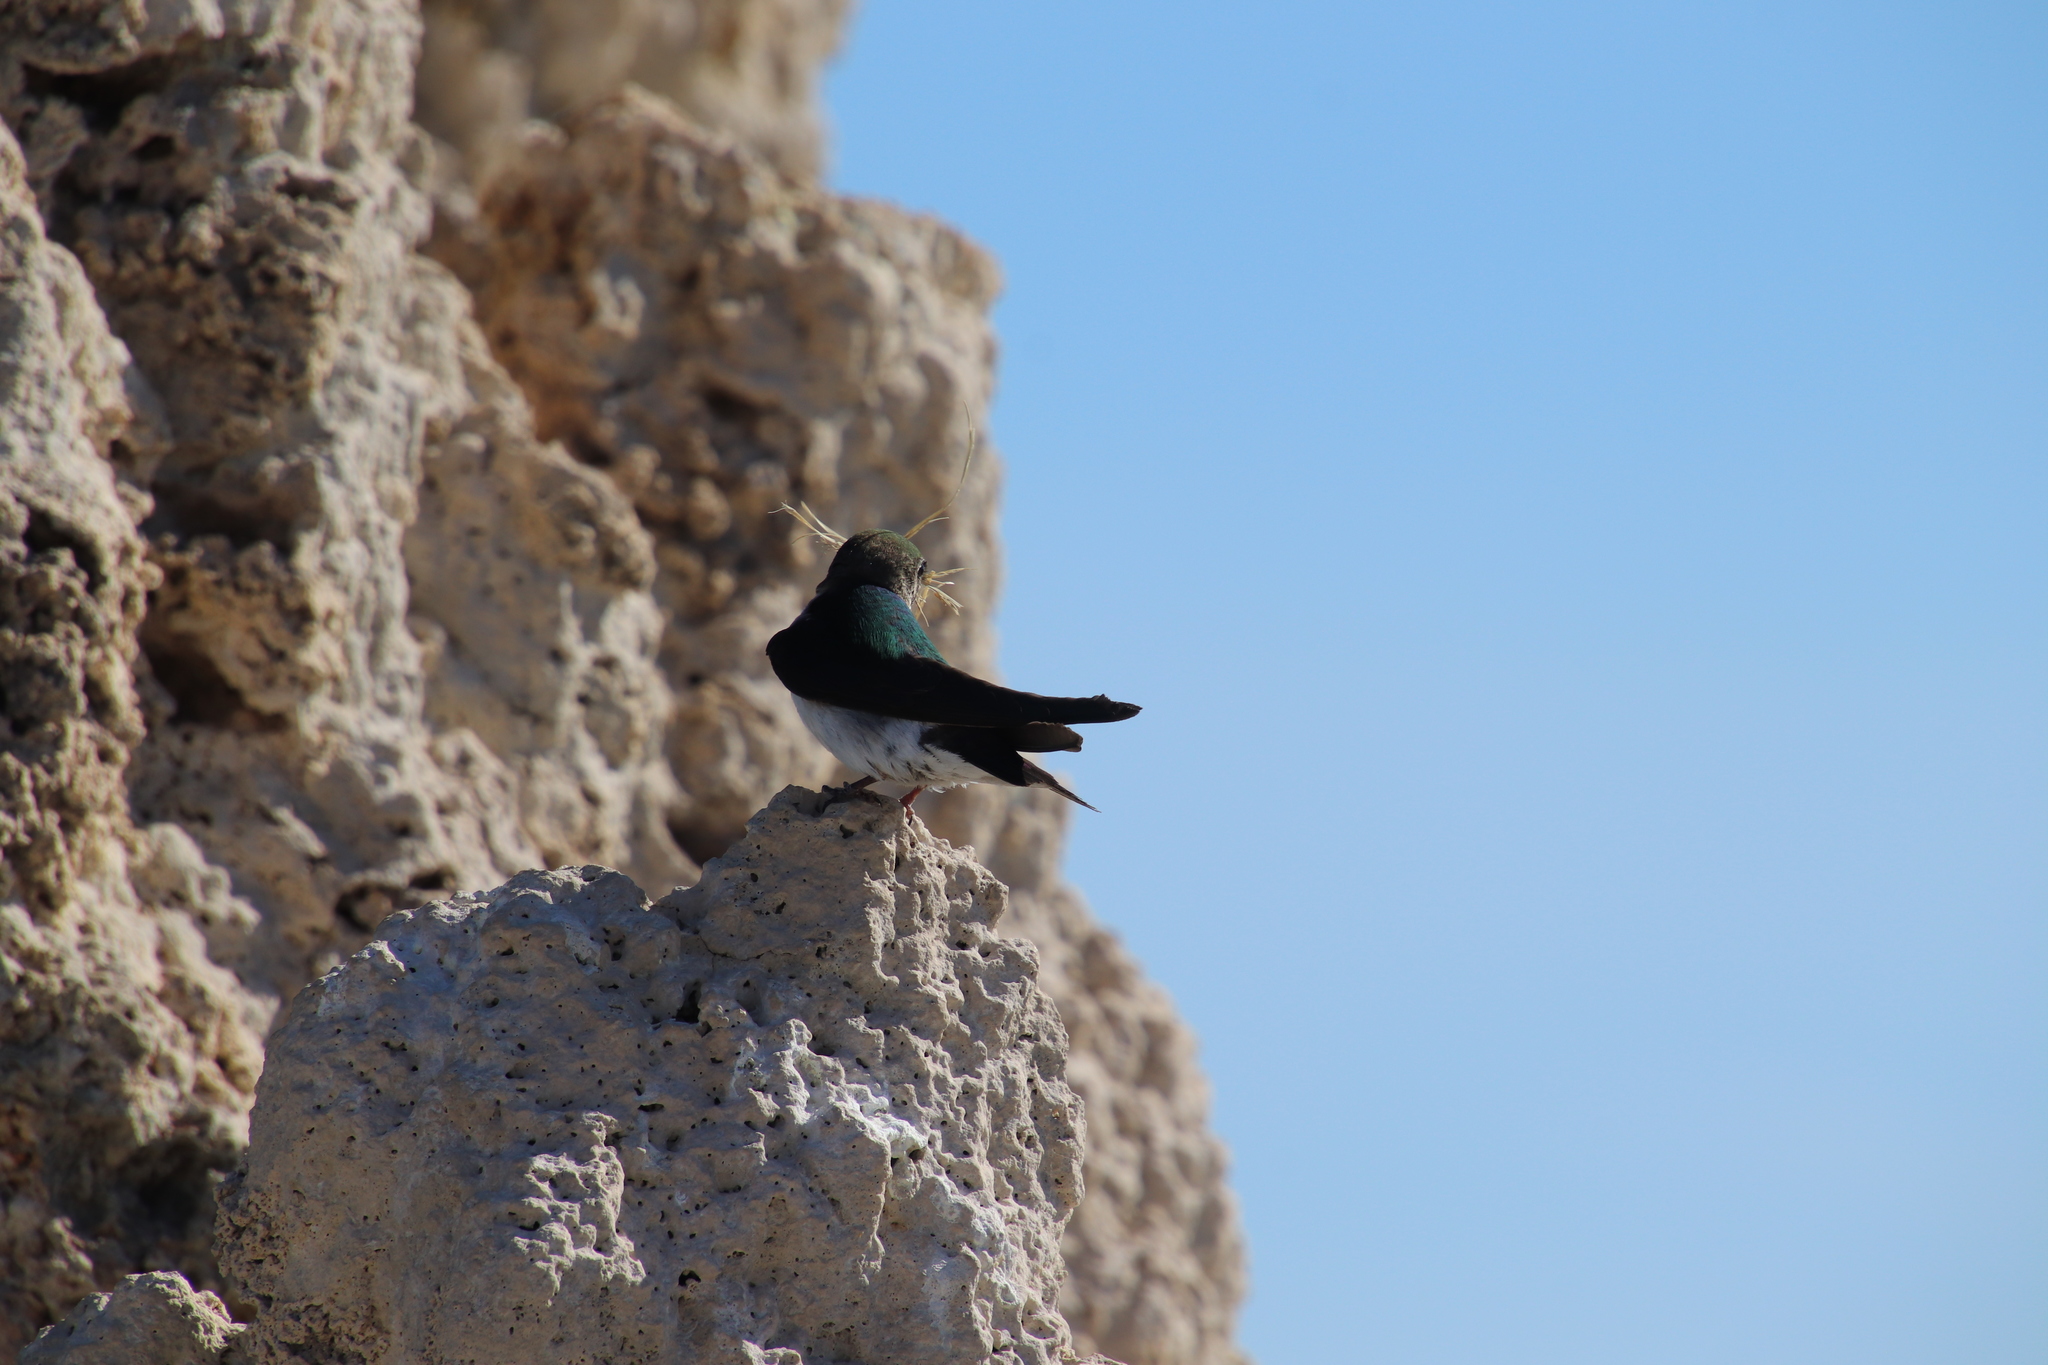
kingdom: Animalia
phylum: Chordata
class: Aves
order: Passeriformes
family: Hirundinidae
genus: Tachycineta
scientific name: Tachycineta thalassina
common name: Violet-green swallow
